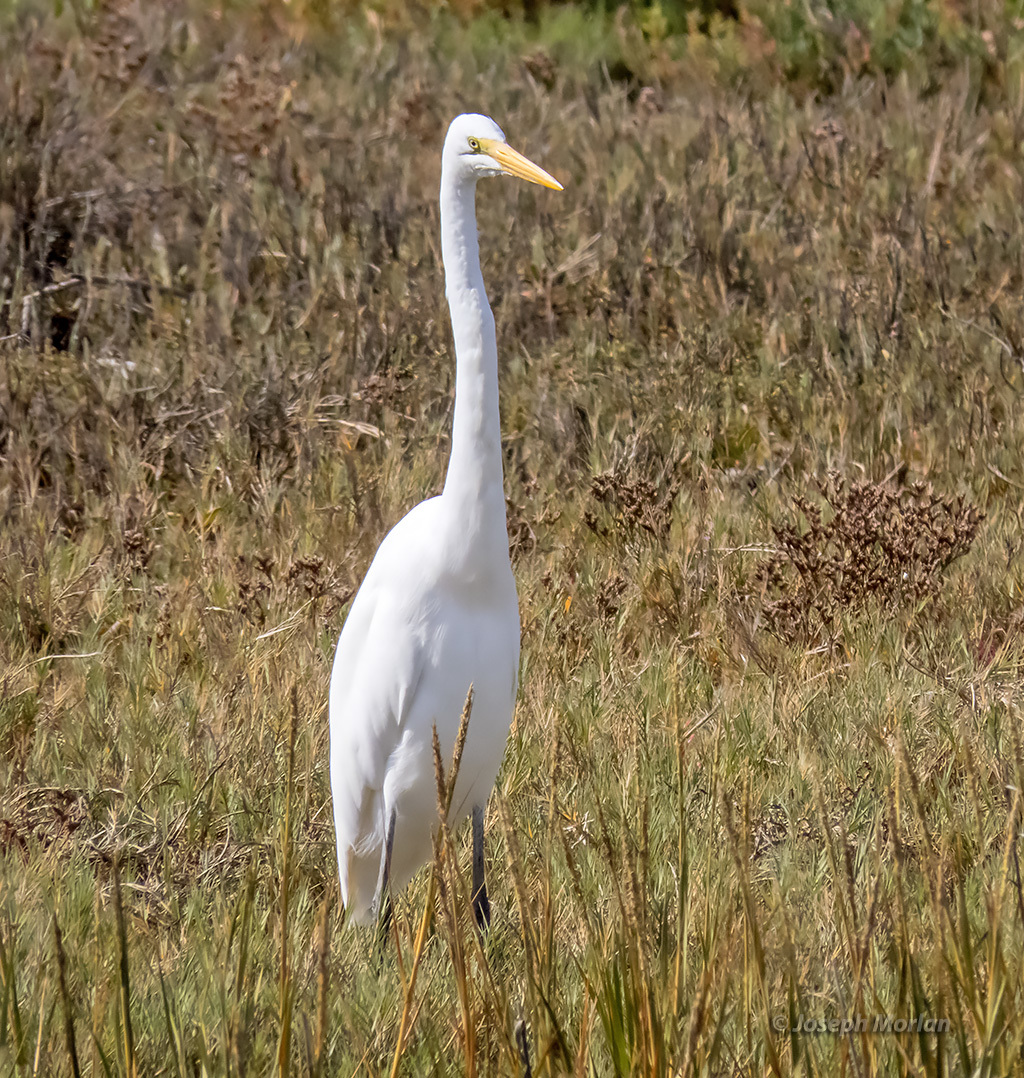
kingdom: Animalia
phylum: Chordata
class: Aves
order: Pelecaniformes
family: Ardeidae
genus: Ardea
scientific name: Ardea alba
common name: Great egret
